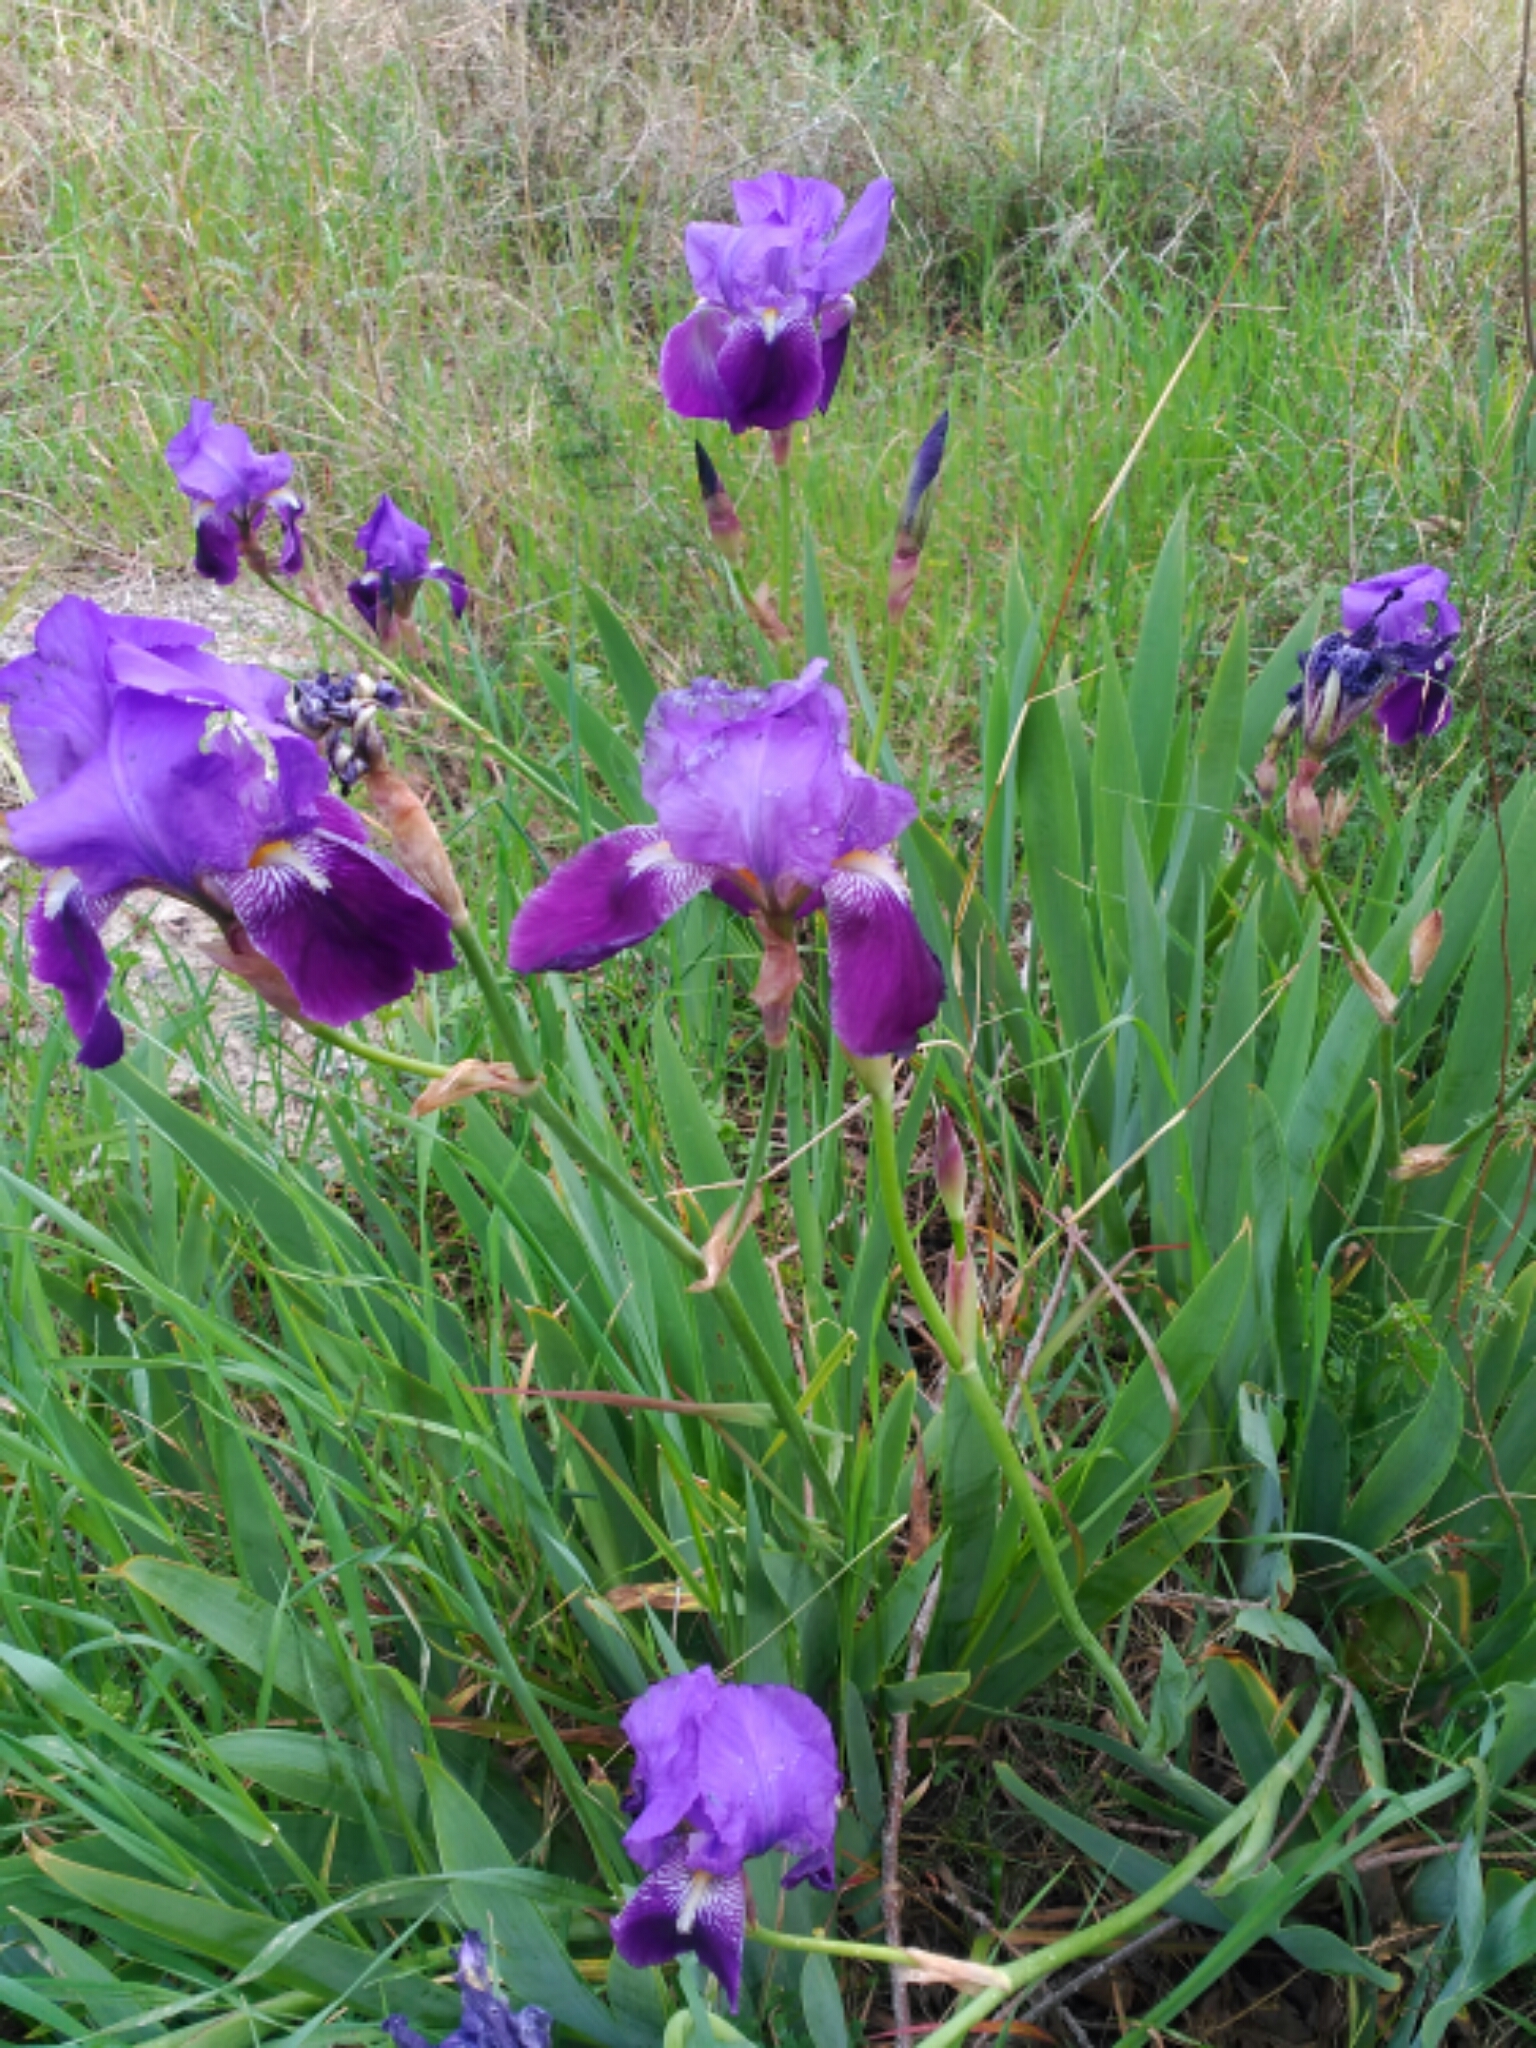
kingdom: Plantae
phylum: Tracheophyta
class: Liliopsida
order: Asparagales
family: Iridaceae
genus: Iris
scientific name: Iris germanica
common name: German iris
